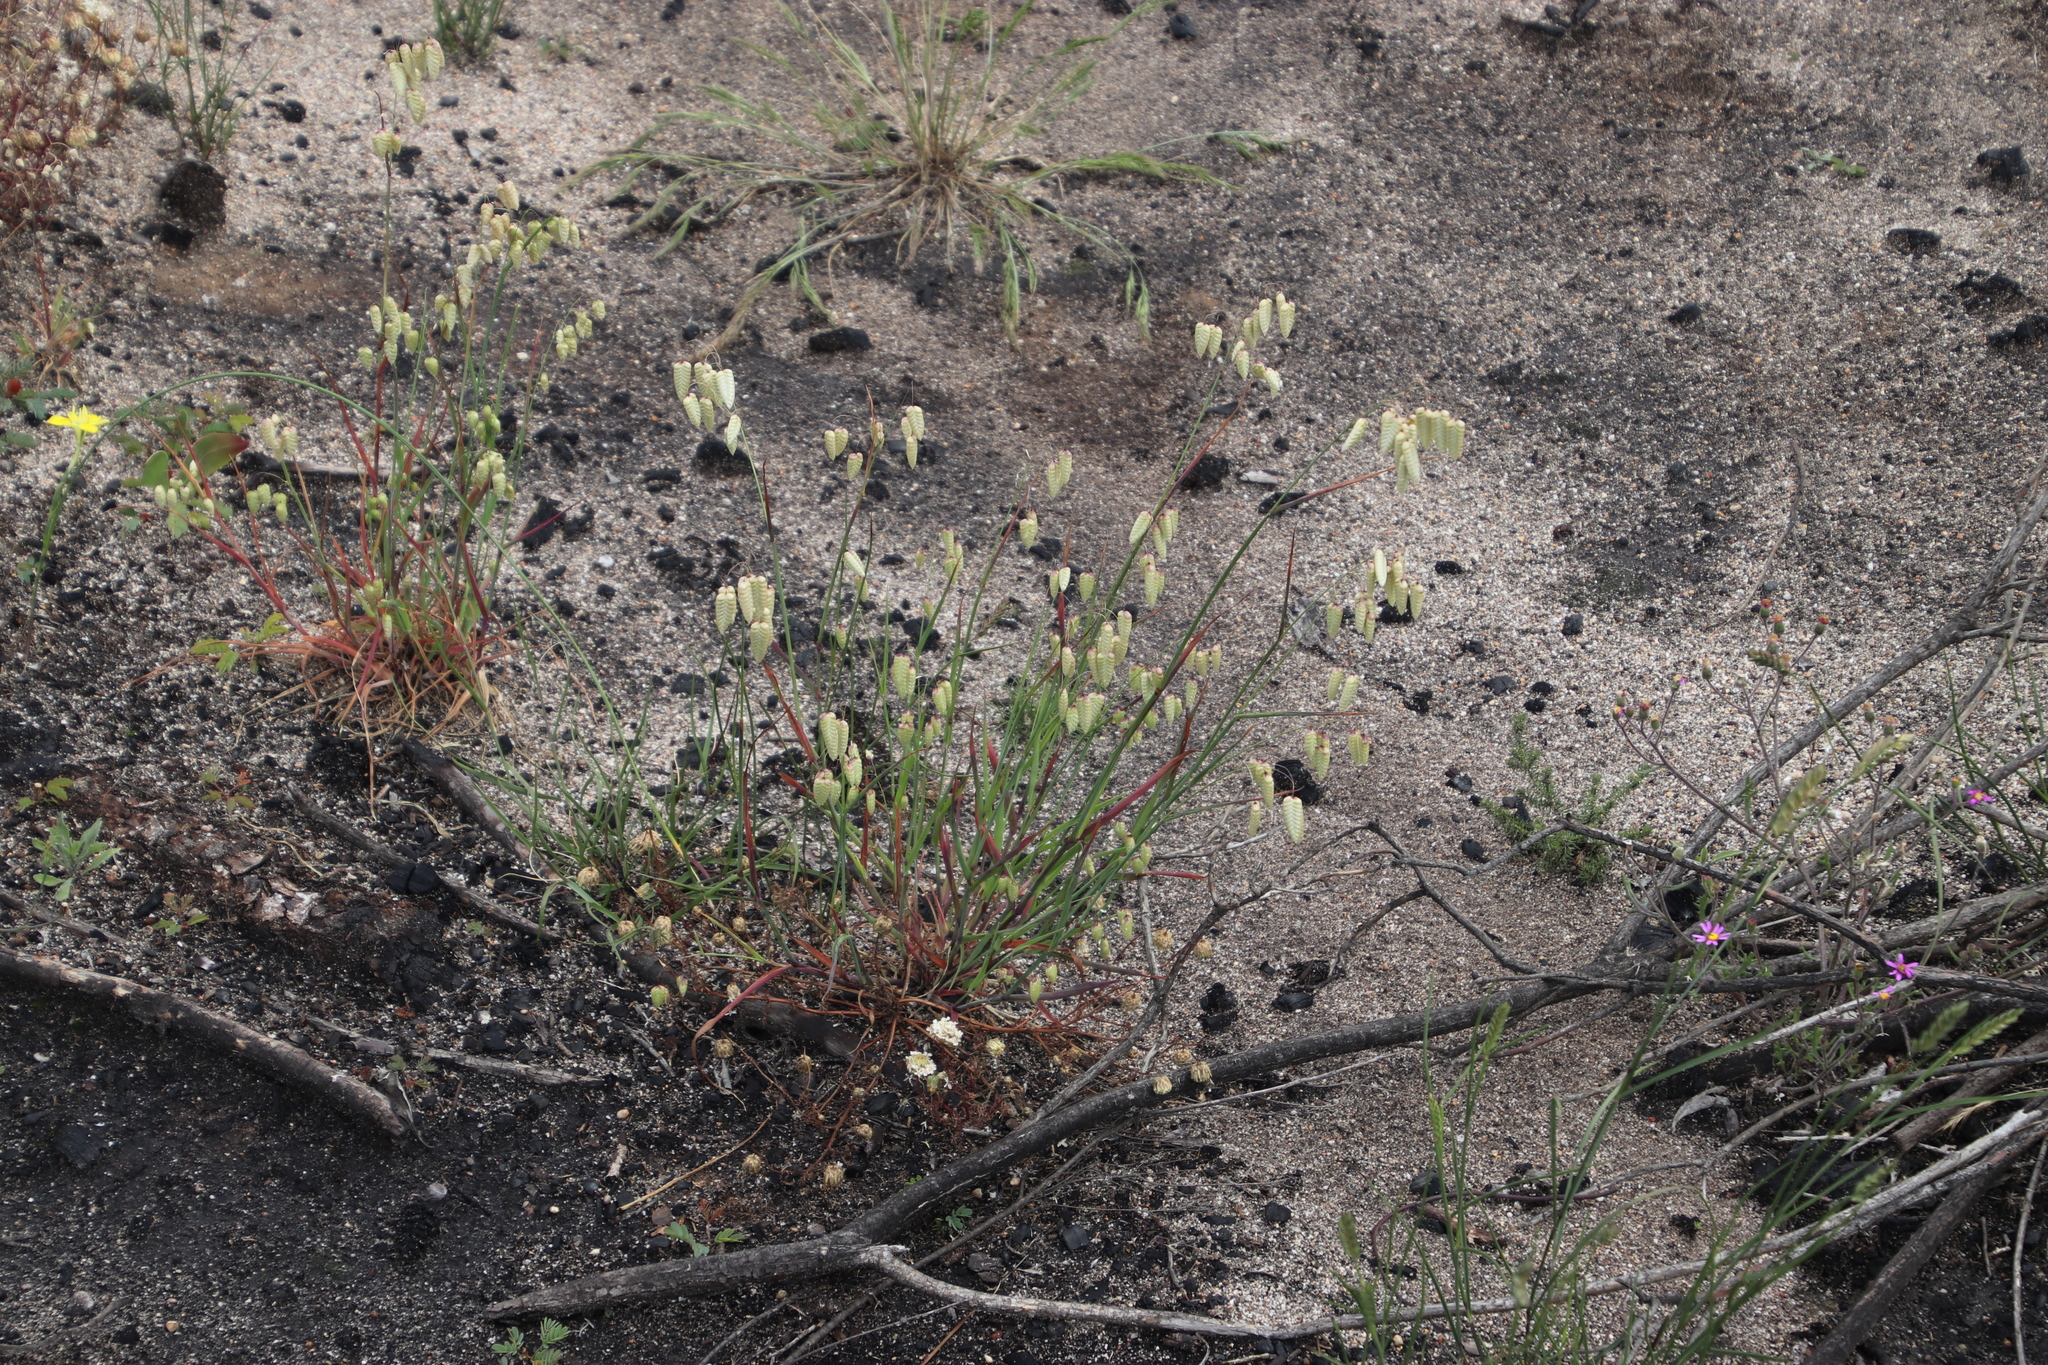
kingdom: Plantae
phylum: Tracheophyta
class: Liliopsida
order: Poales
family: Poaceae
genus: Briza
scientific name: Briza maxima
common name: Big quakinggrass
